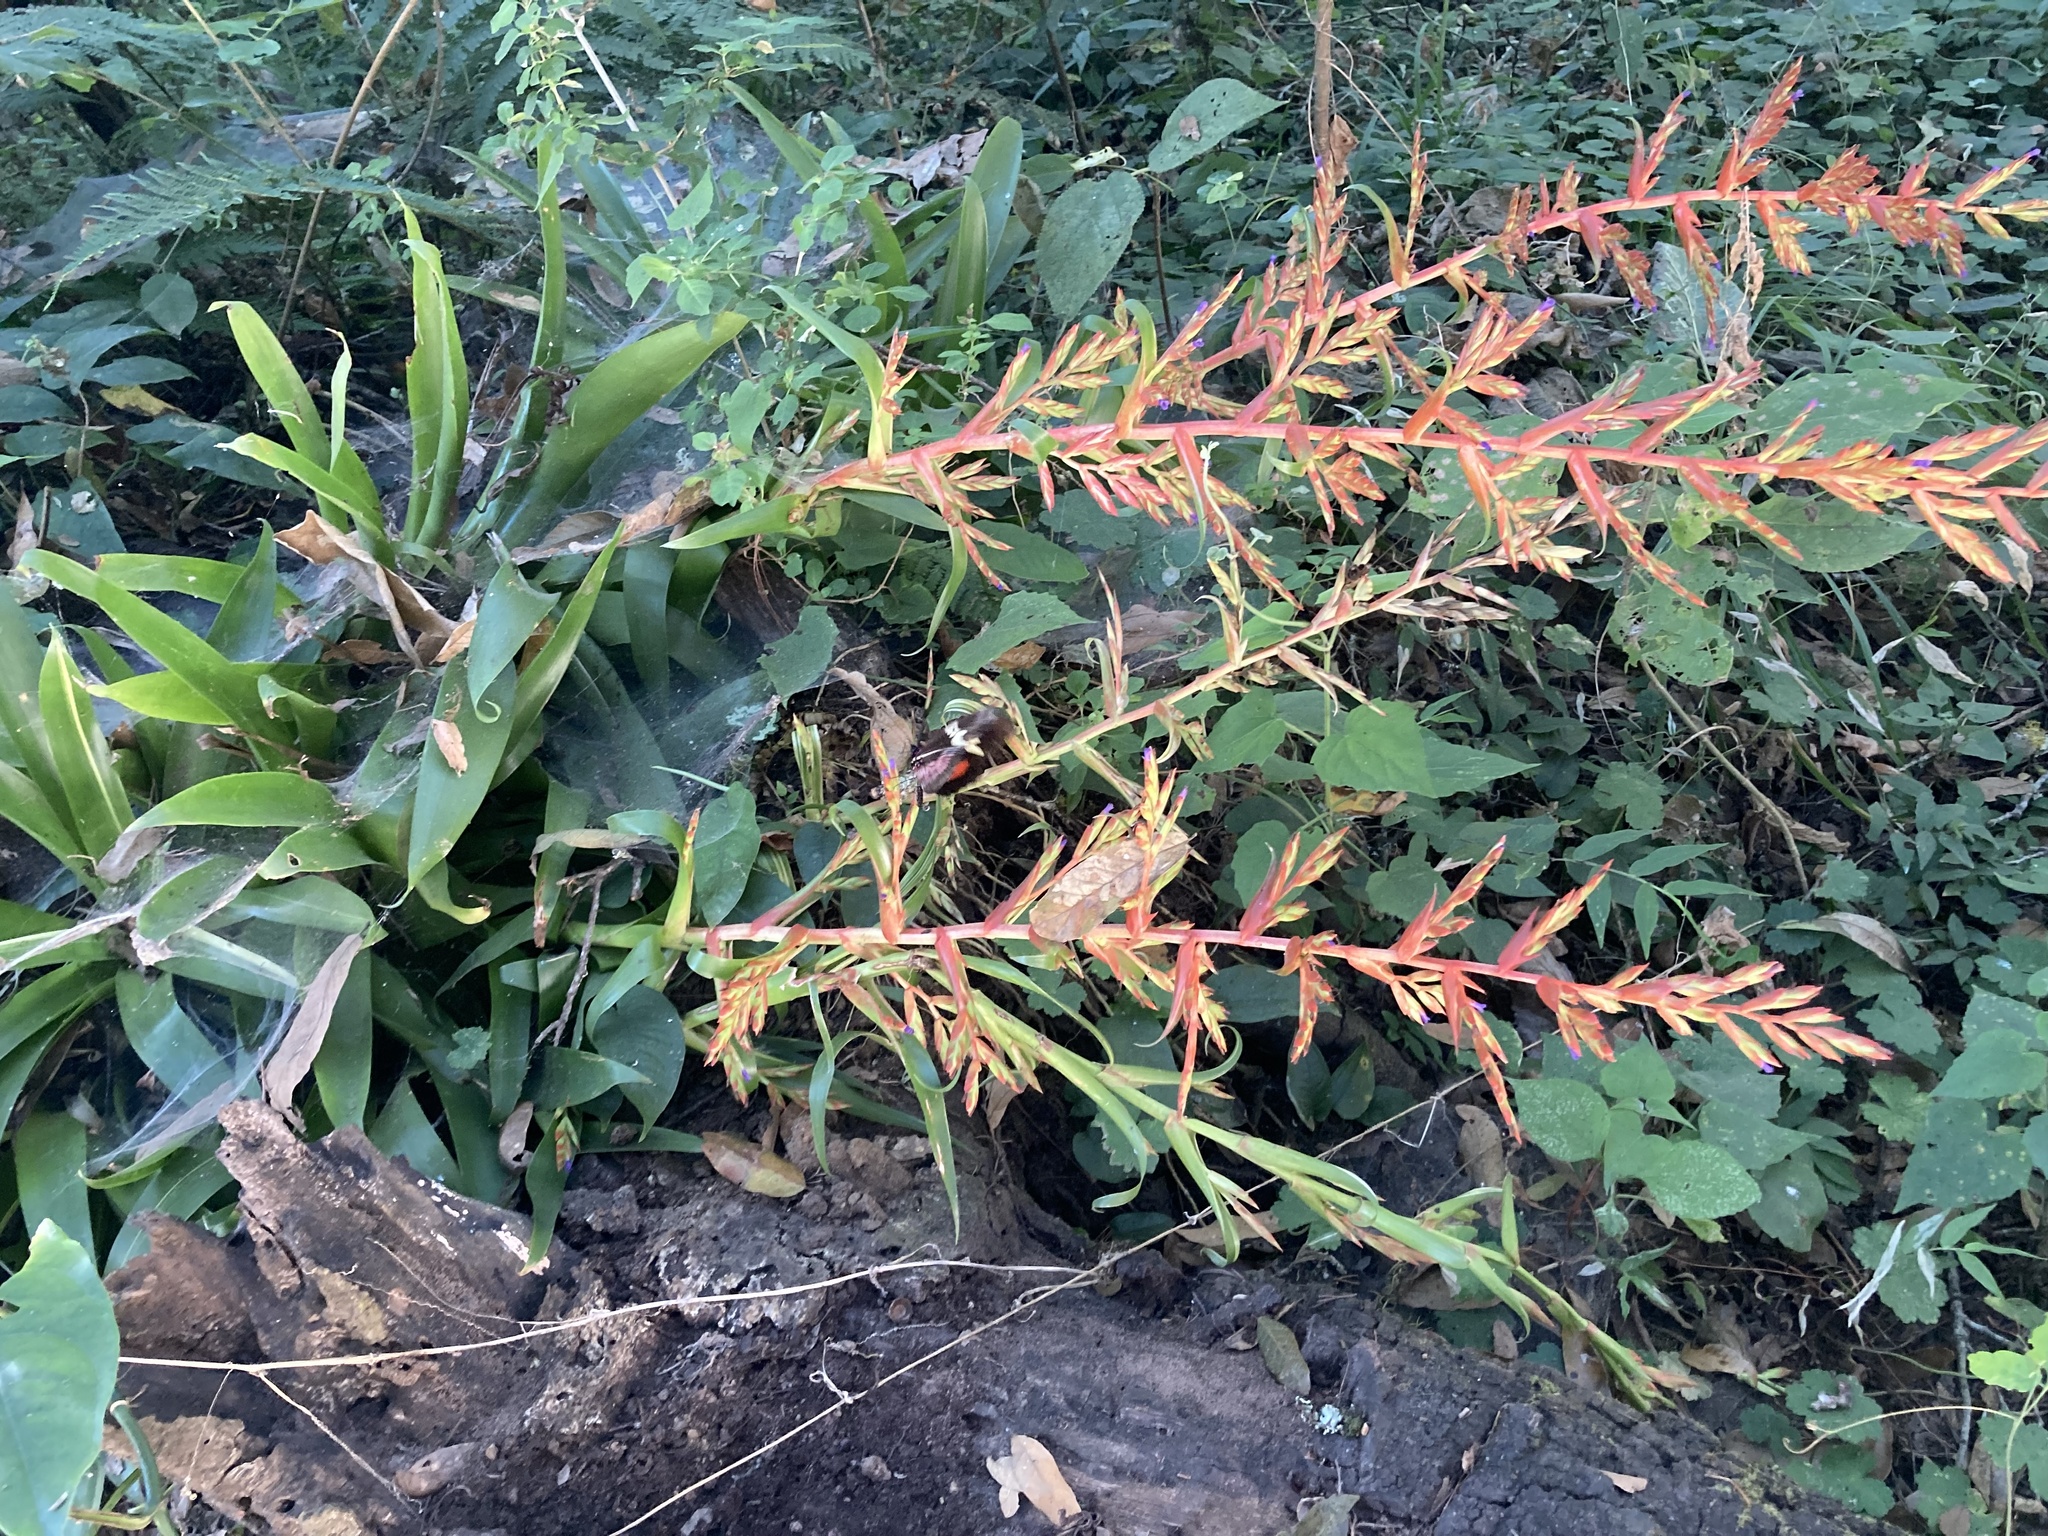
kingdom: Plantae
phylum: Tracheophyta
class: Liliopsida
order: Poales
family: Bromeliaceae
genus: Tillandsia
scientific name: Tillandsia guatemalensis
